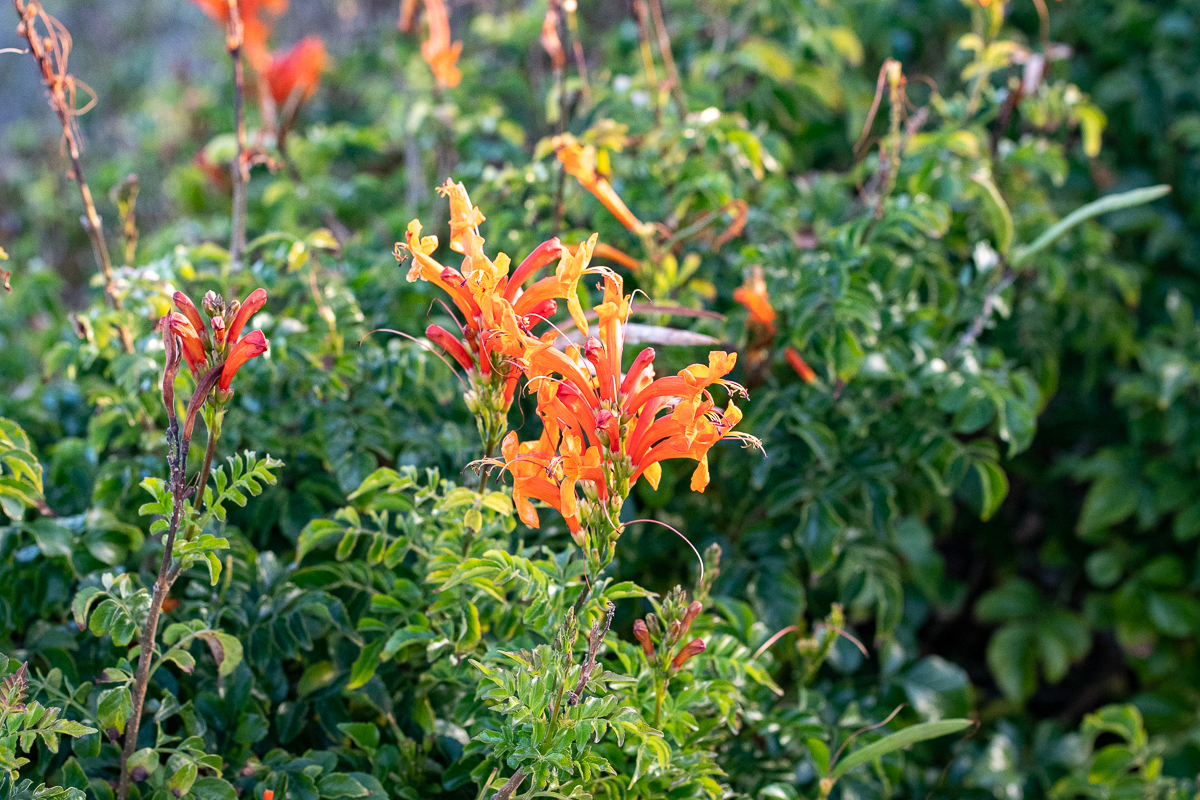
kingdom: Plantae
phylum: Tracheophyta
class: Magnoliopsida
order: Lamiales
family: Bignoniaceae
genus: Tecomaria
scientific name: Tecomaria capensis
